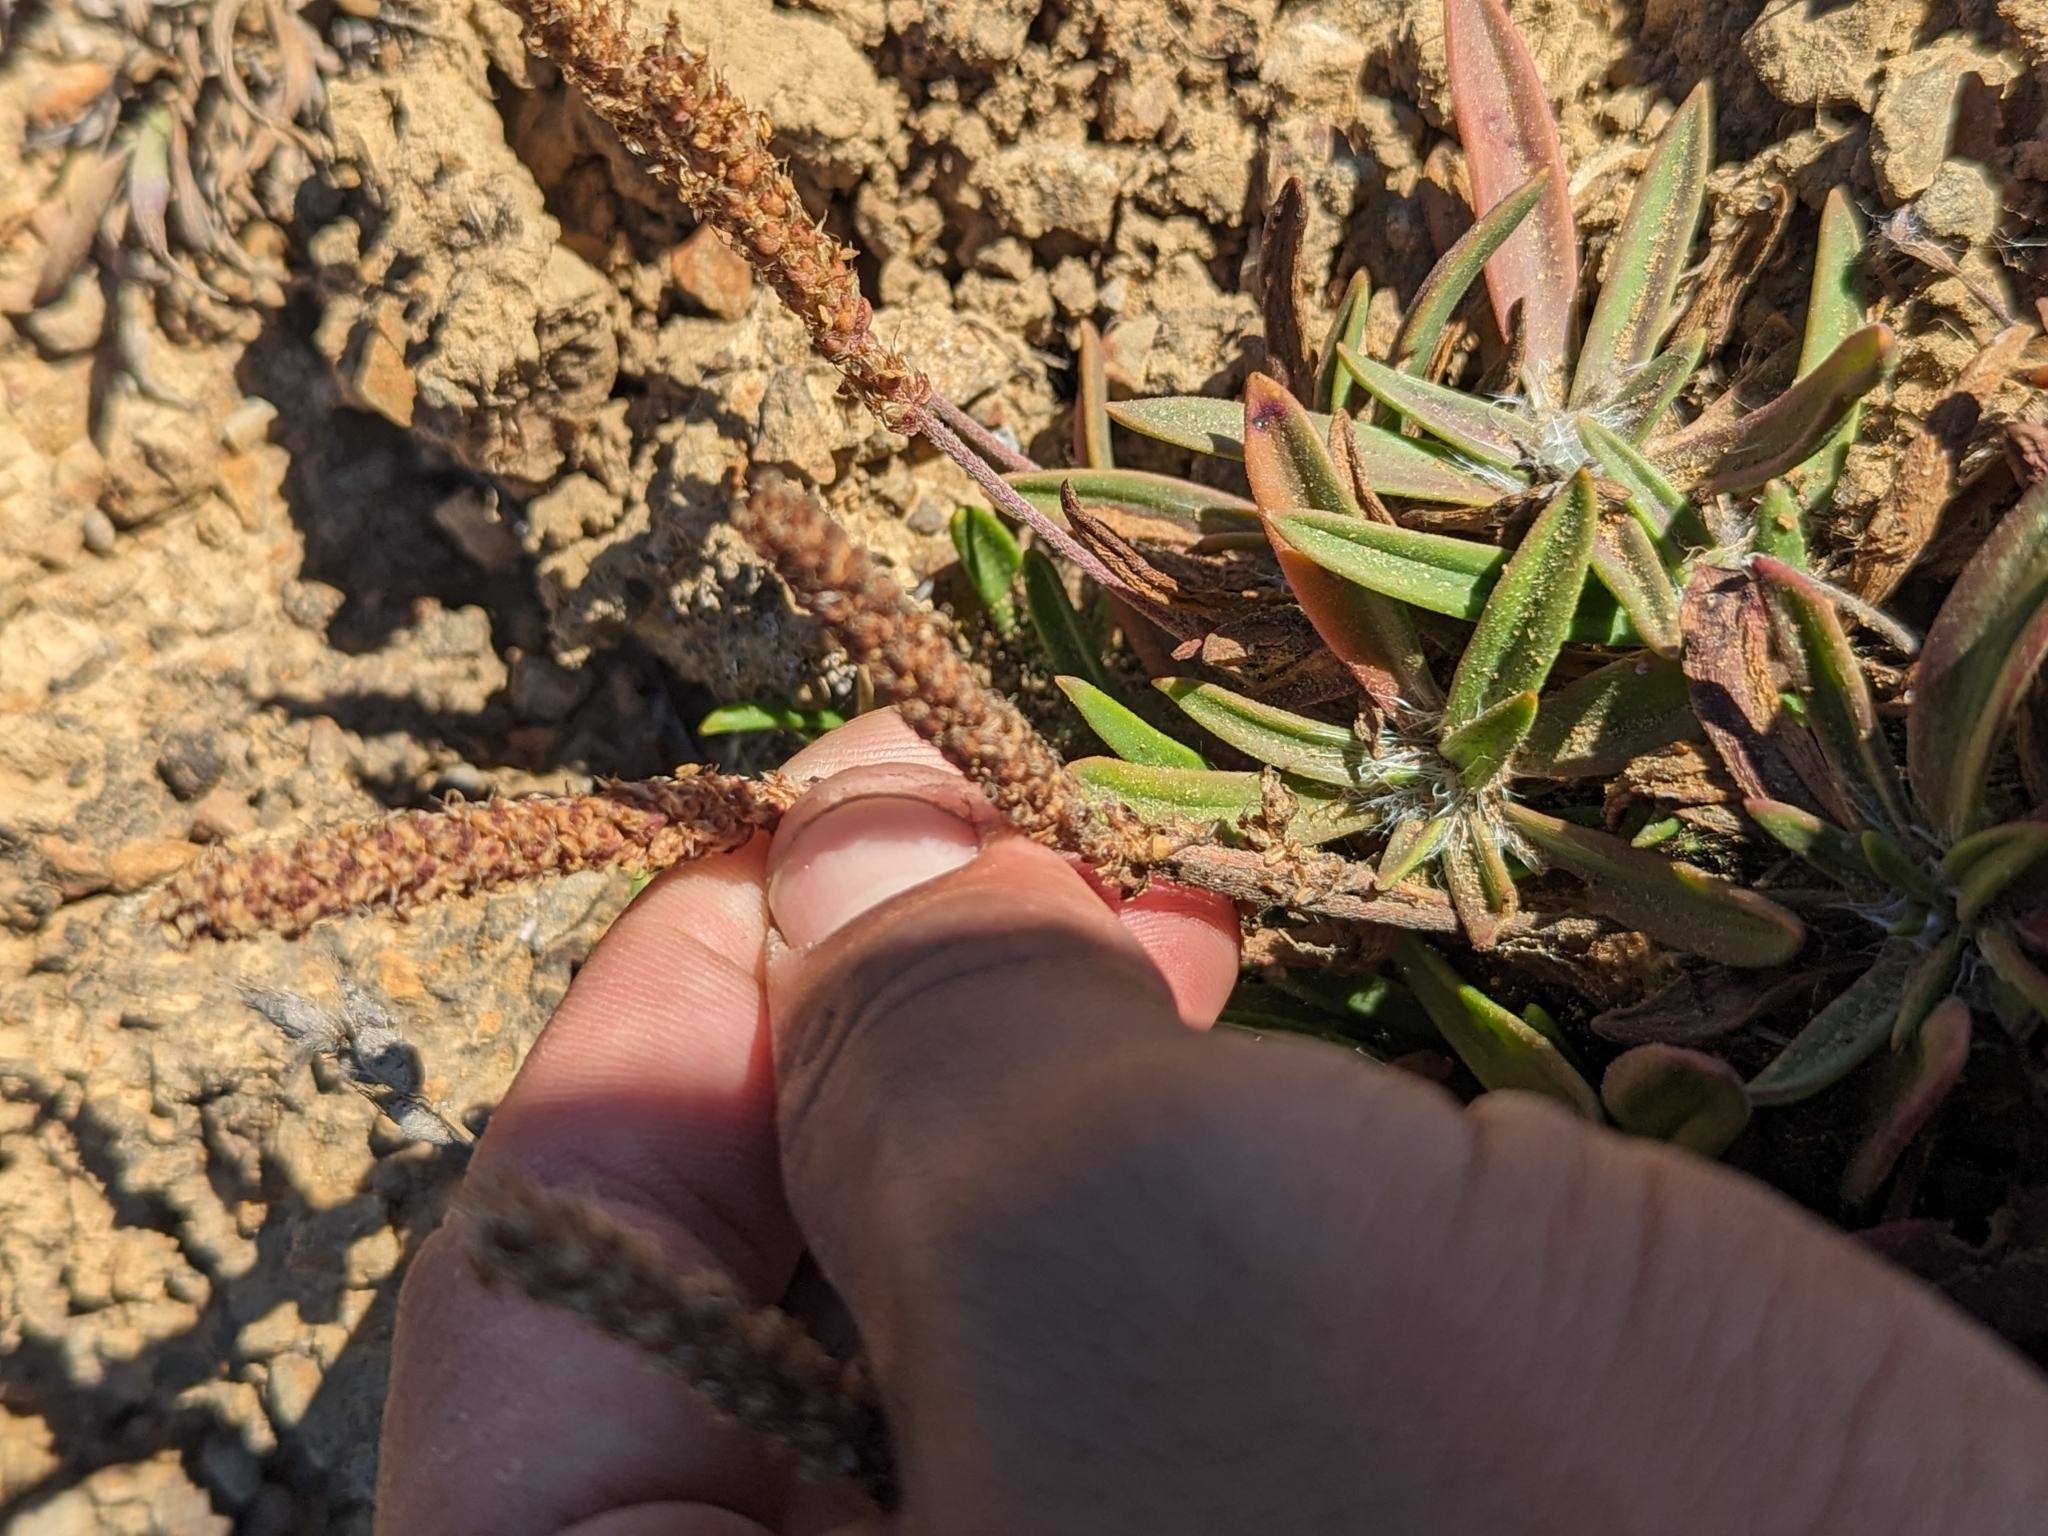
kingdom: Plantae
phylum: Tracheophyta
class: Magnoliopsida
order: Lamiales
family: Plantaginaceae
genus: Plantago
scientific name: Plantago maritima
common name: Sea plantain
